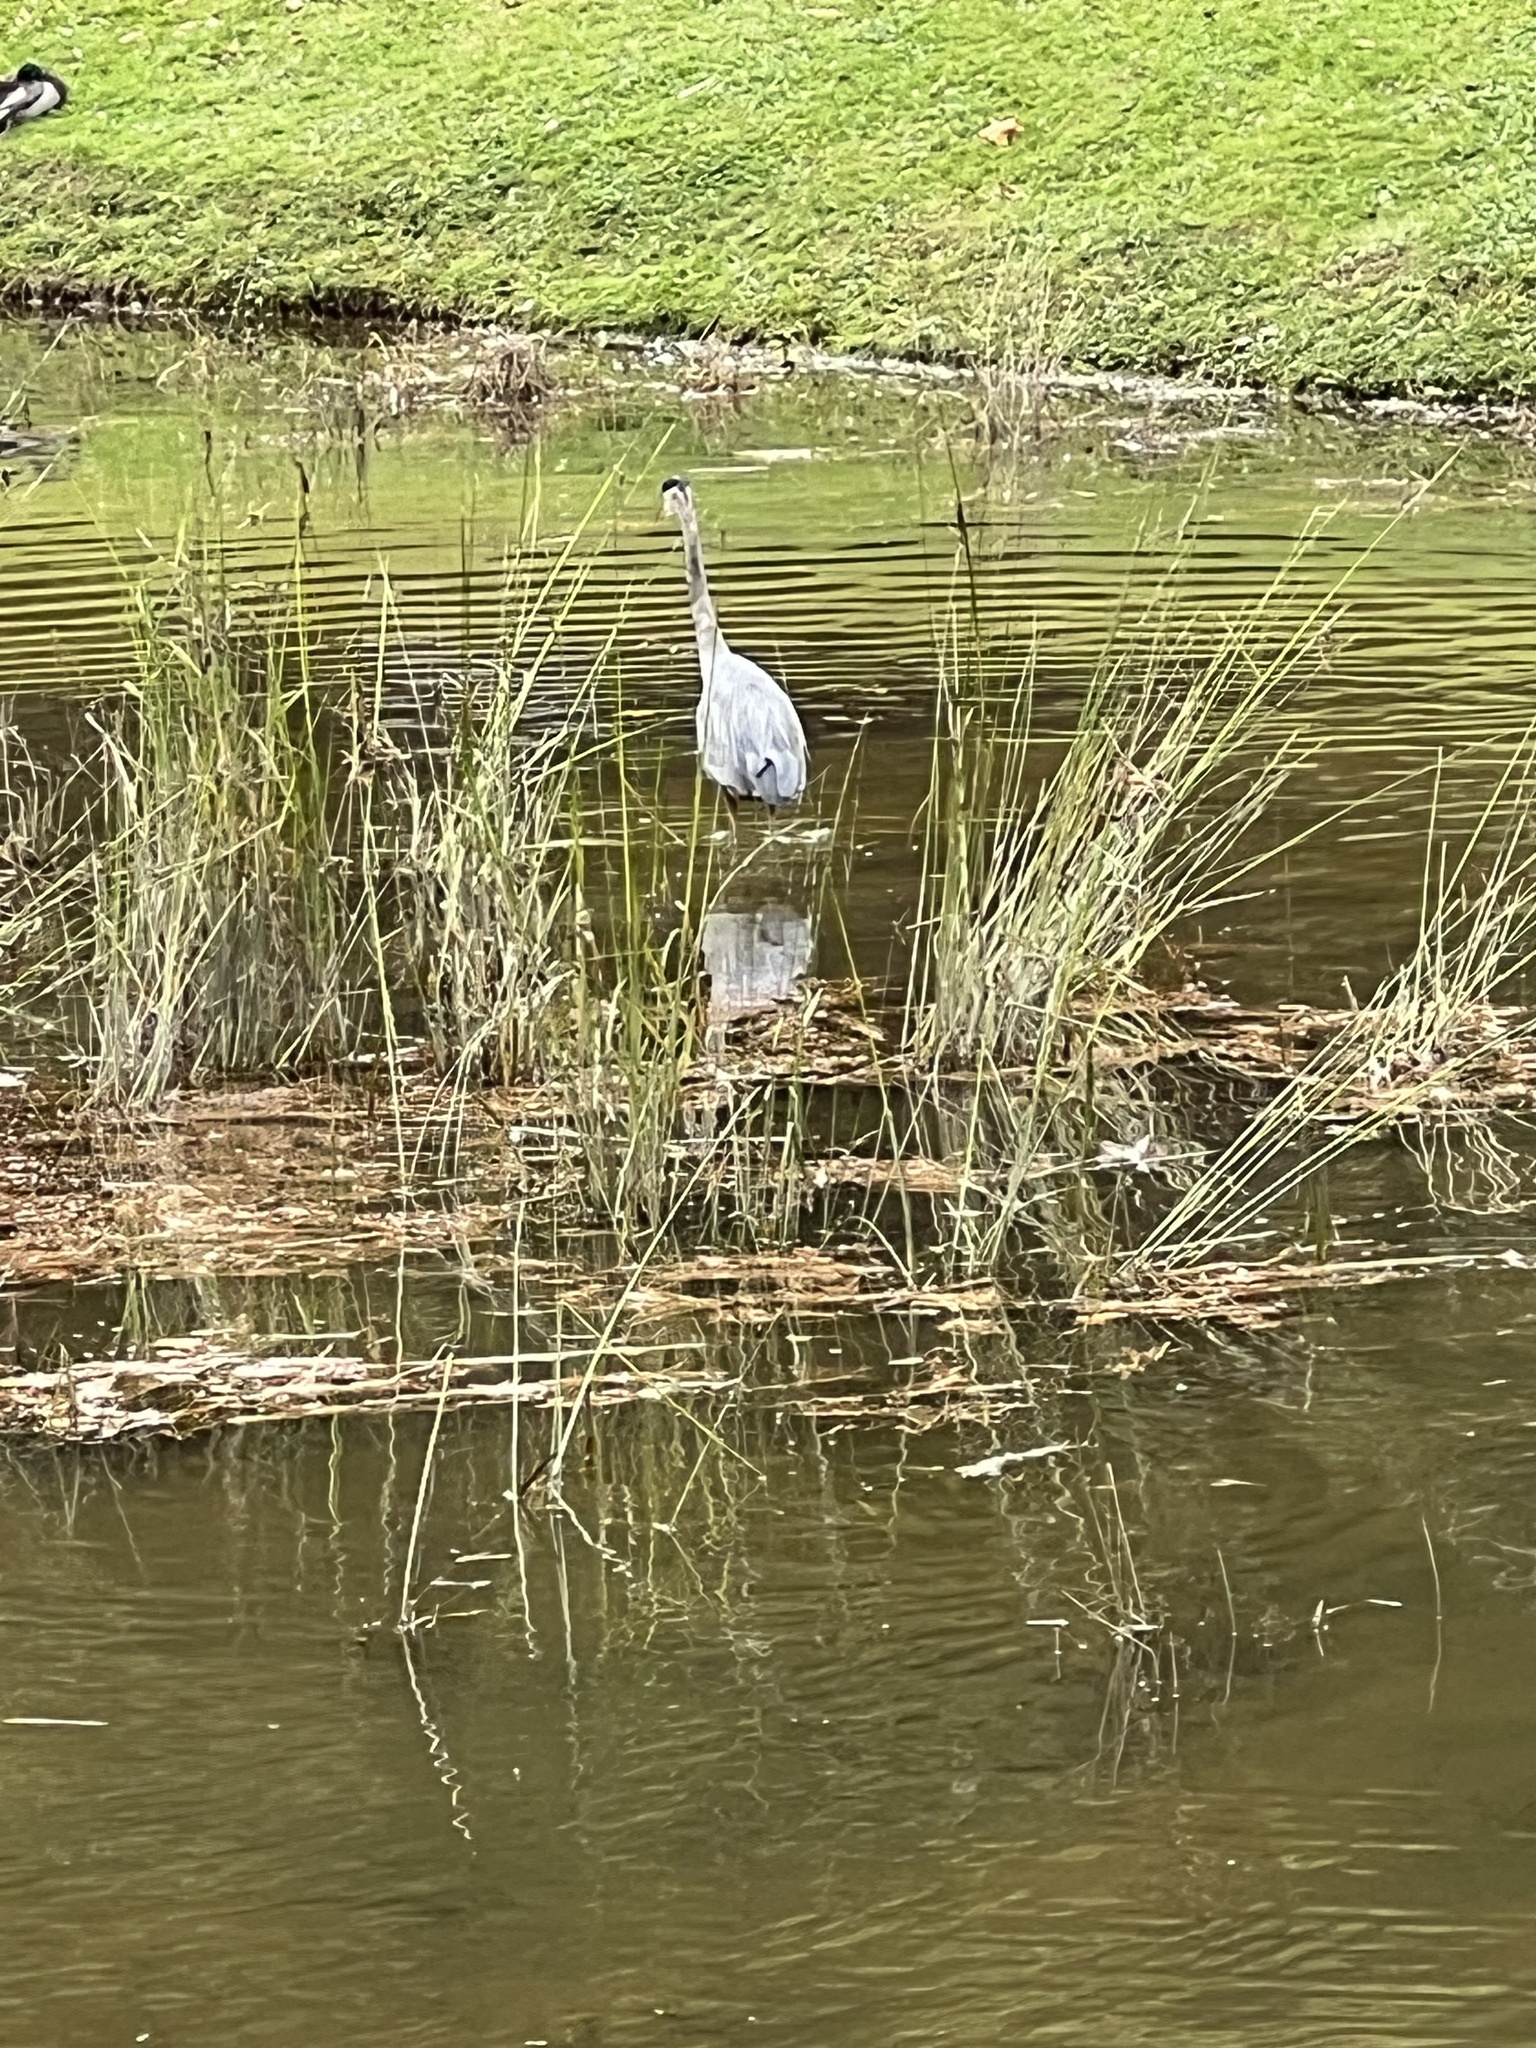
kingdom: Animalia
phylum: Chordata
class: Aves
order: Pelecaniformes
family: Ardeidae
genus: Ardea
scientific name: Ardea herodias
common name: Great blue heron
